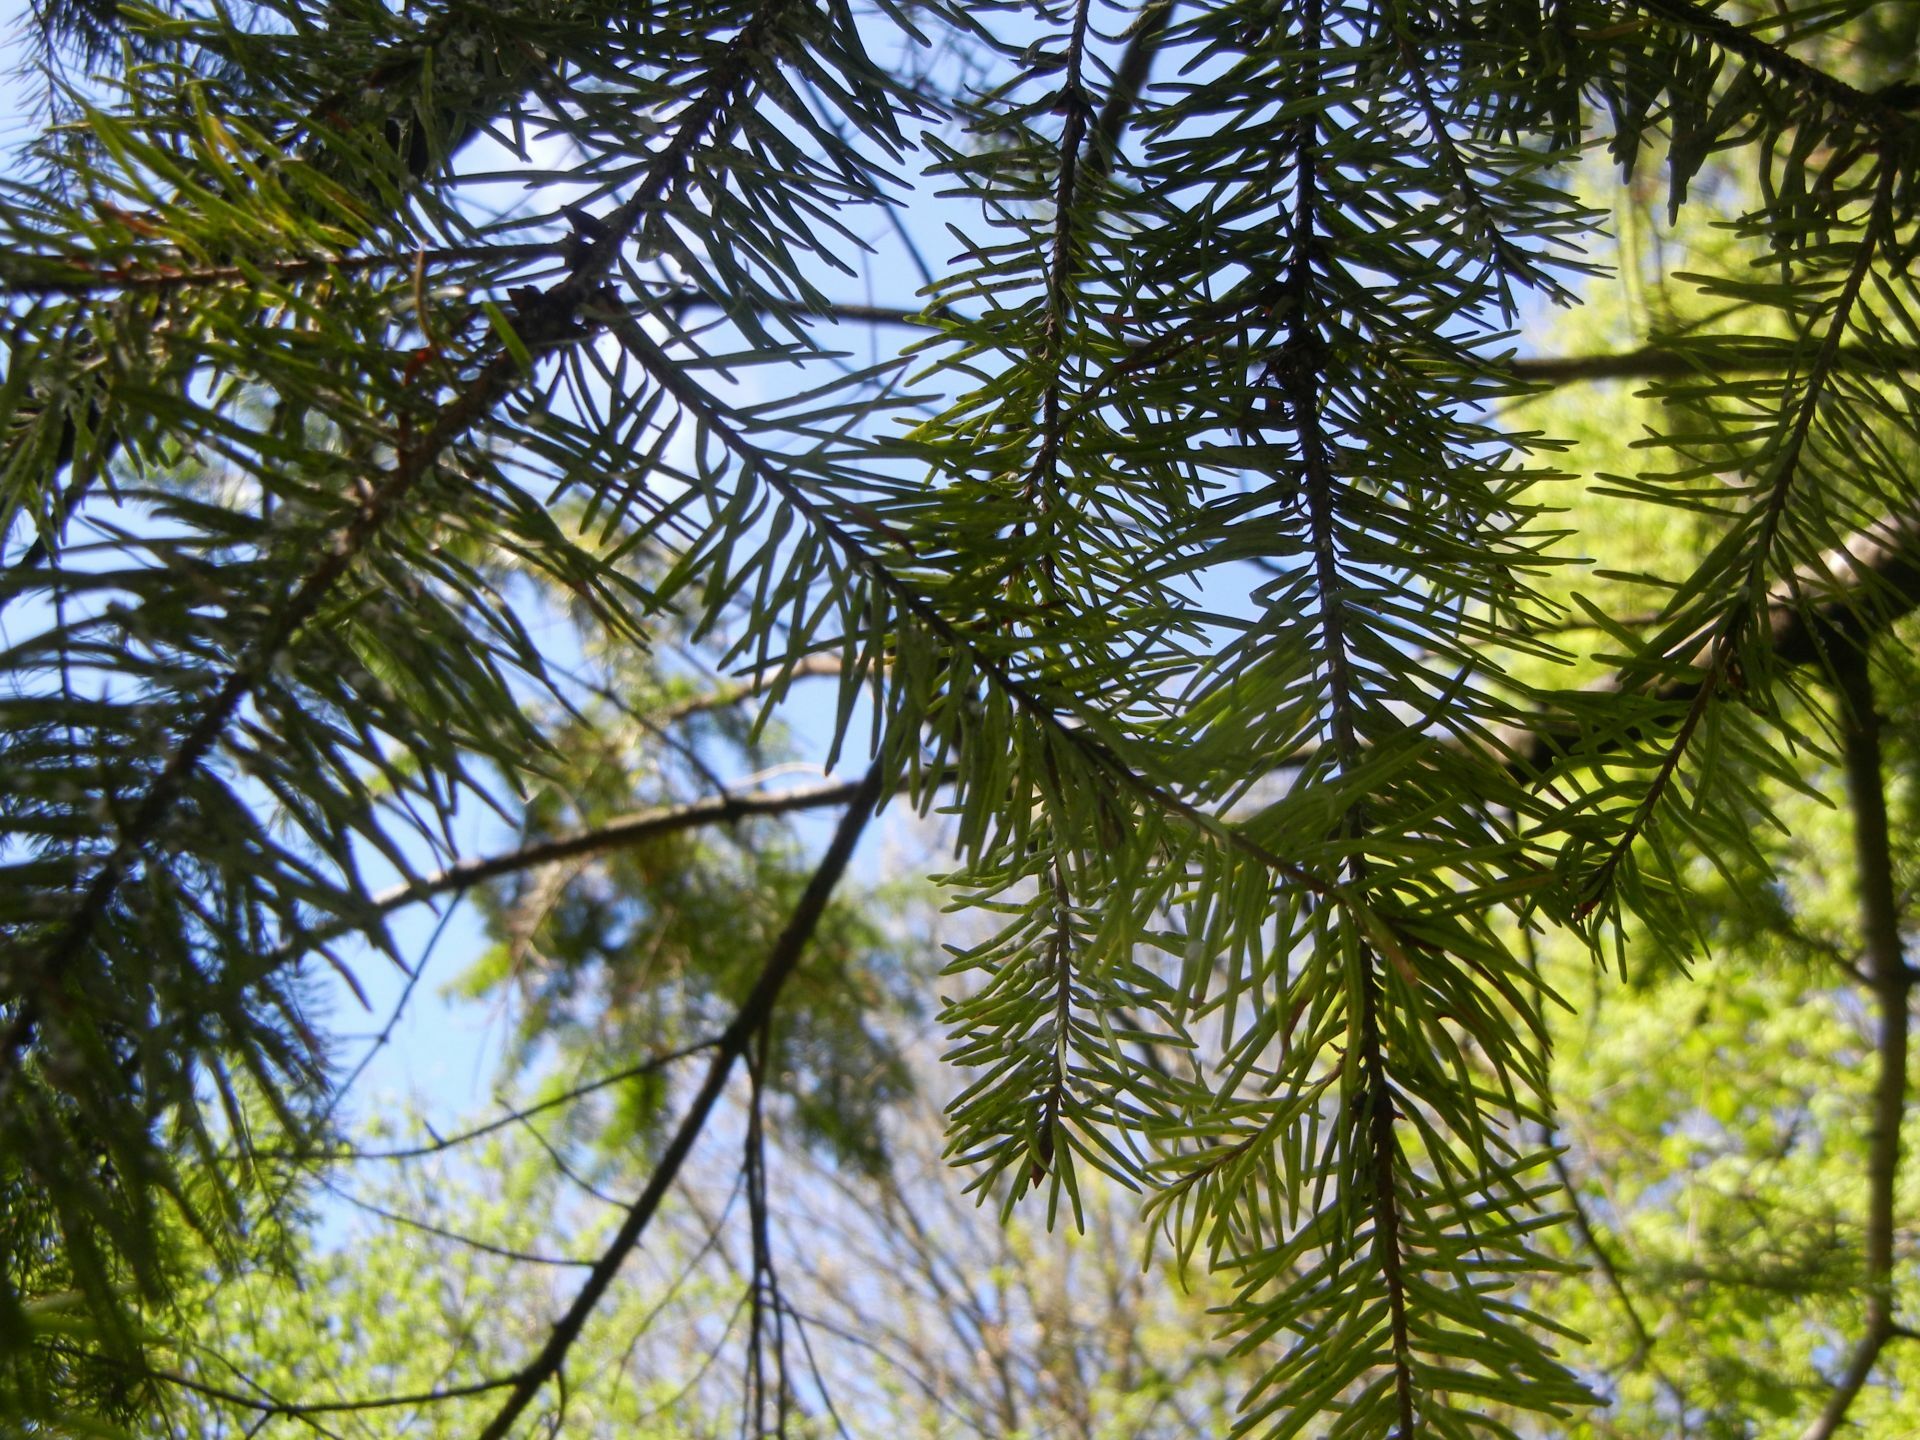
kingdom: Plantae
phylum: Tracheophyta
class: Pinopsida
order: Pinales
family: Pinaceae
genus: Pseudotsuga
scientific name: Pseudotsuga menziesii
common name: Douglas fir
